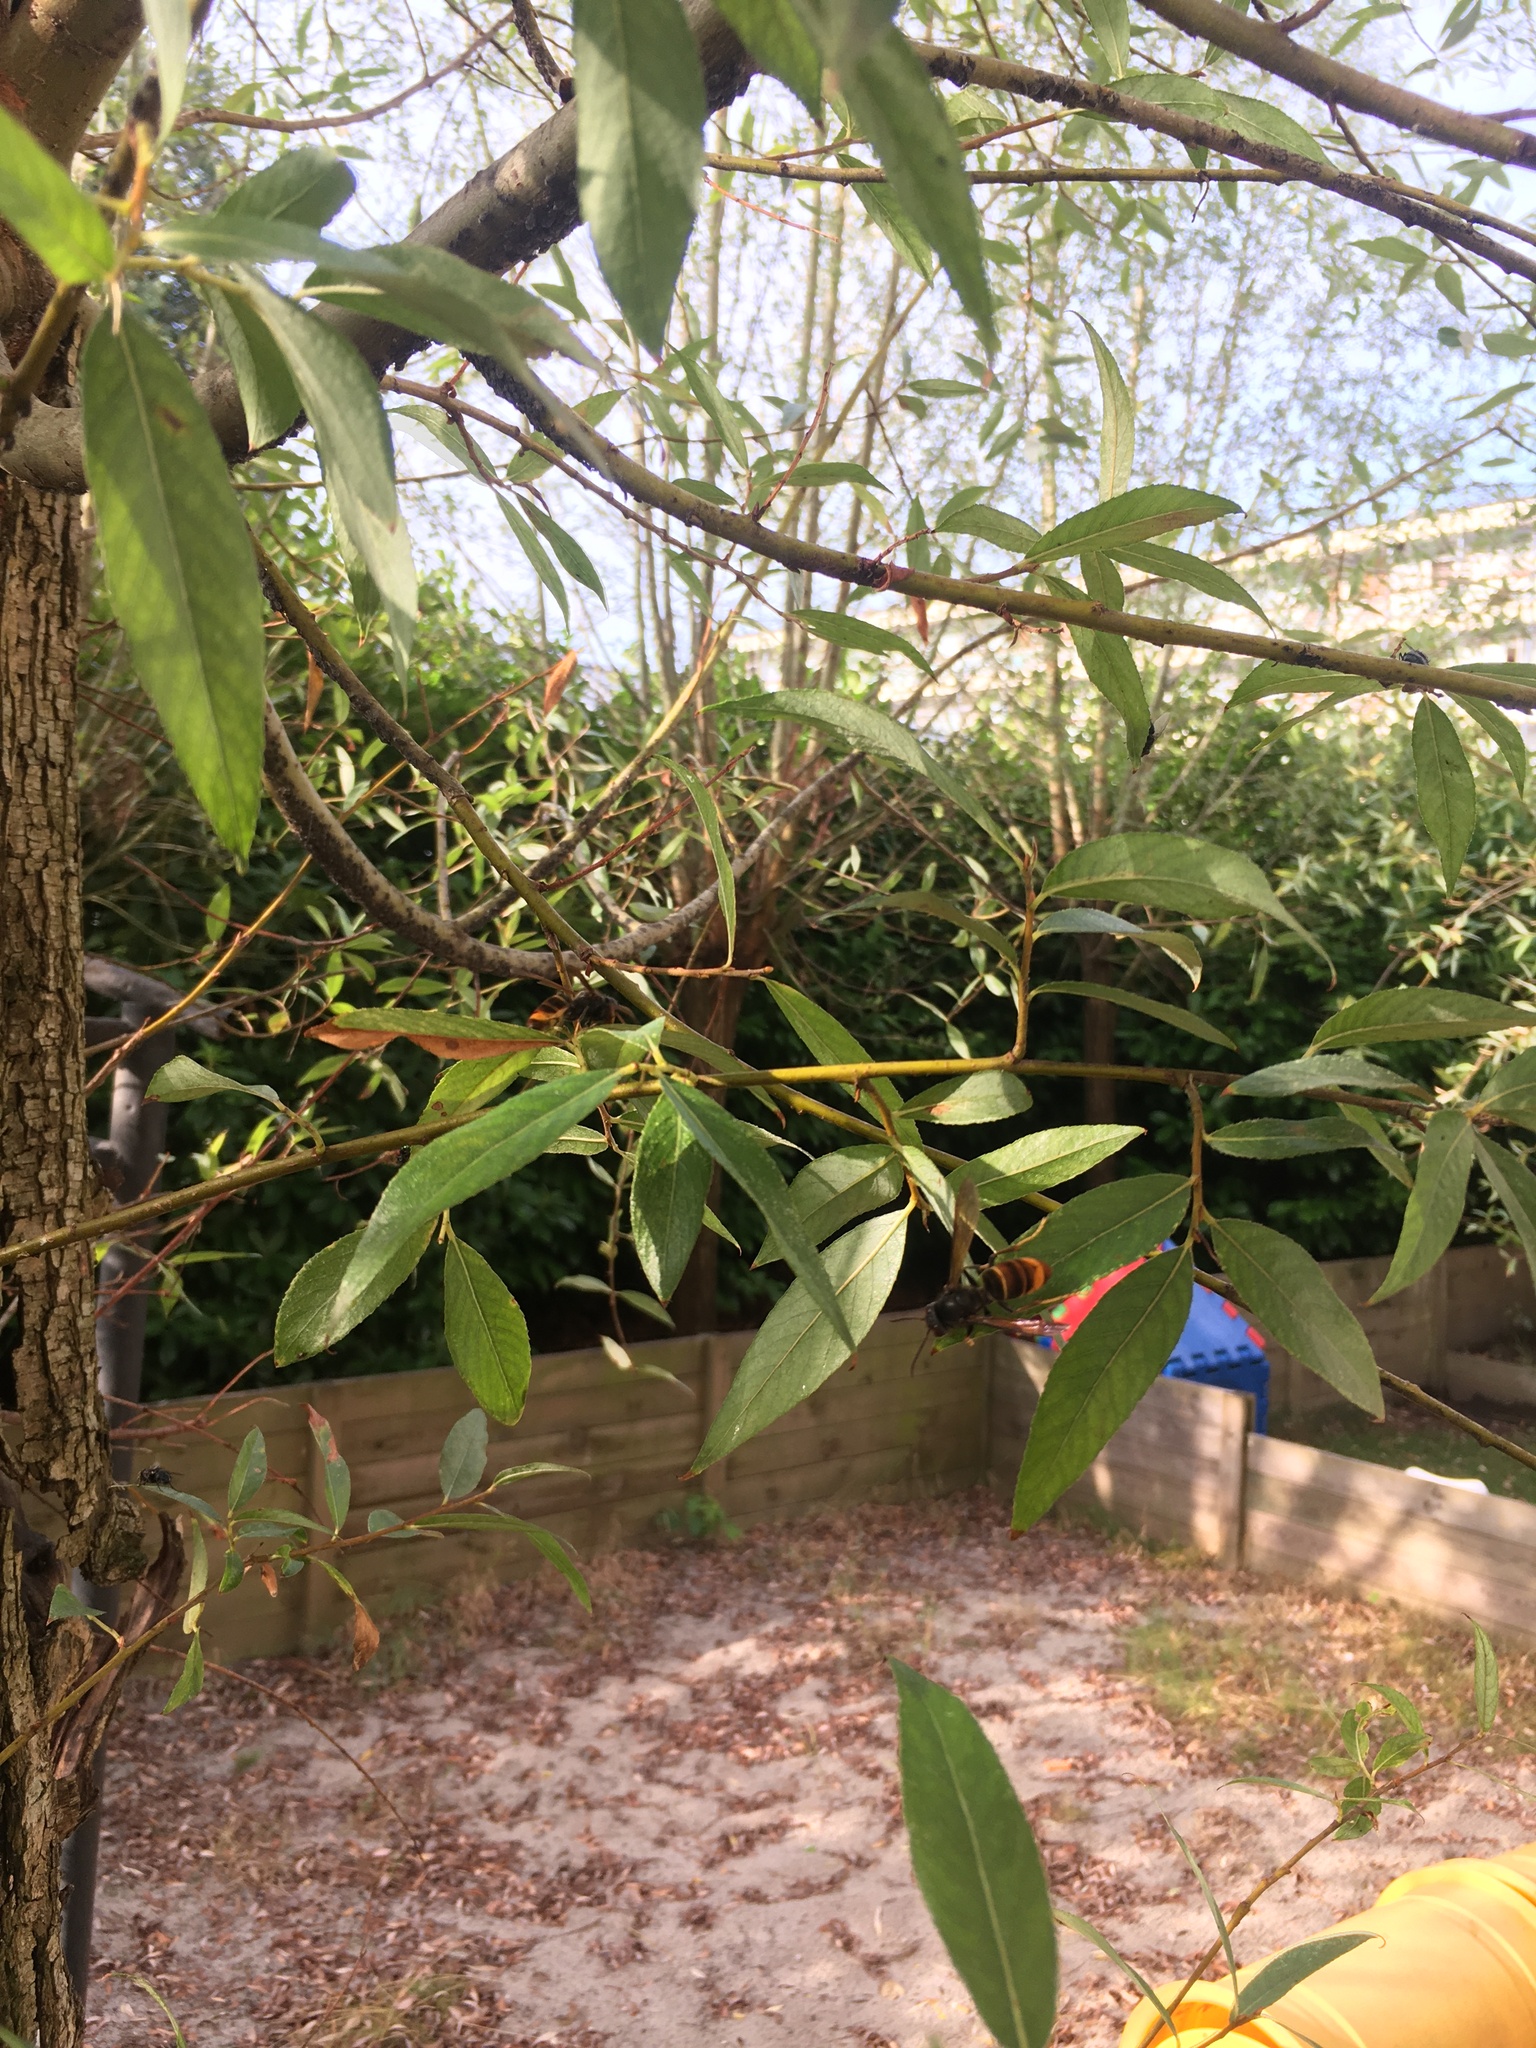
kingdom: Animalia
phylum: Arthropoda
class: Insecta
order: Hymenoptera
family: Vespidae
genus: Vespa
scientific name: Vespa velutina
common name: Asian hornet
